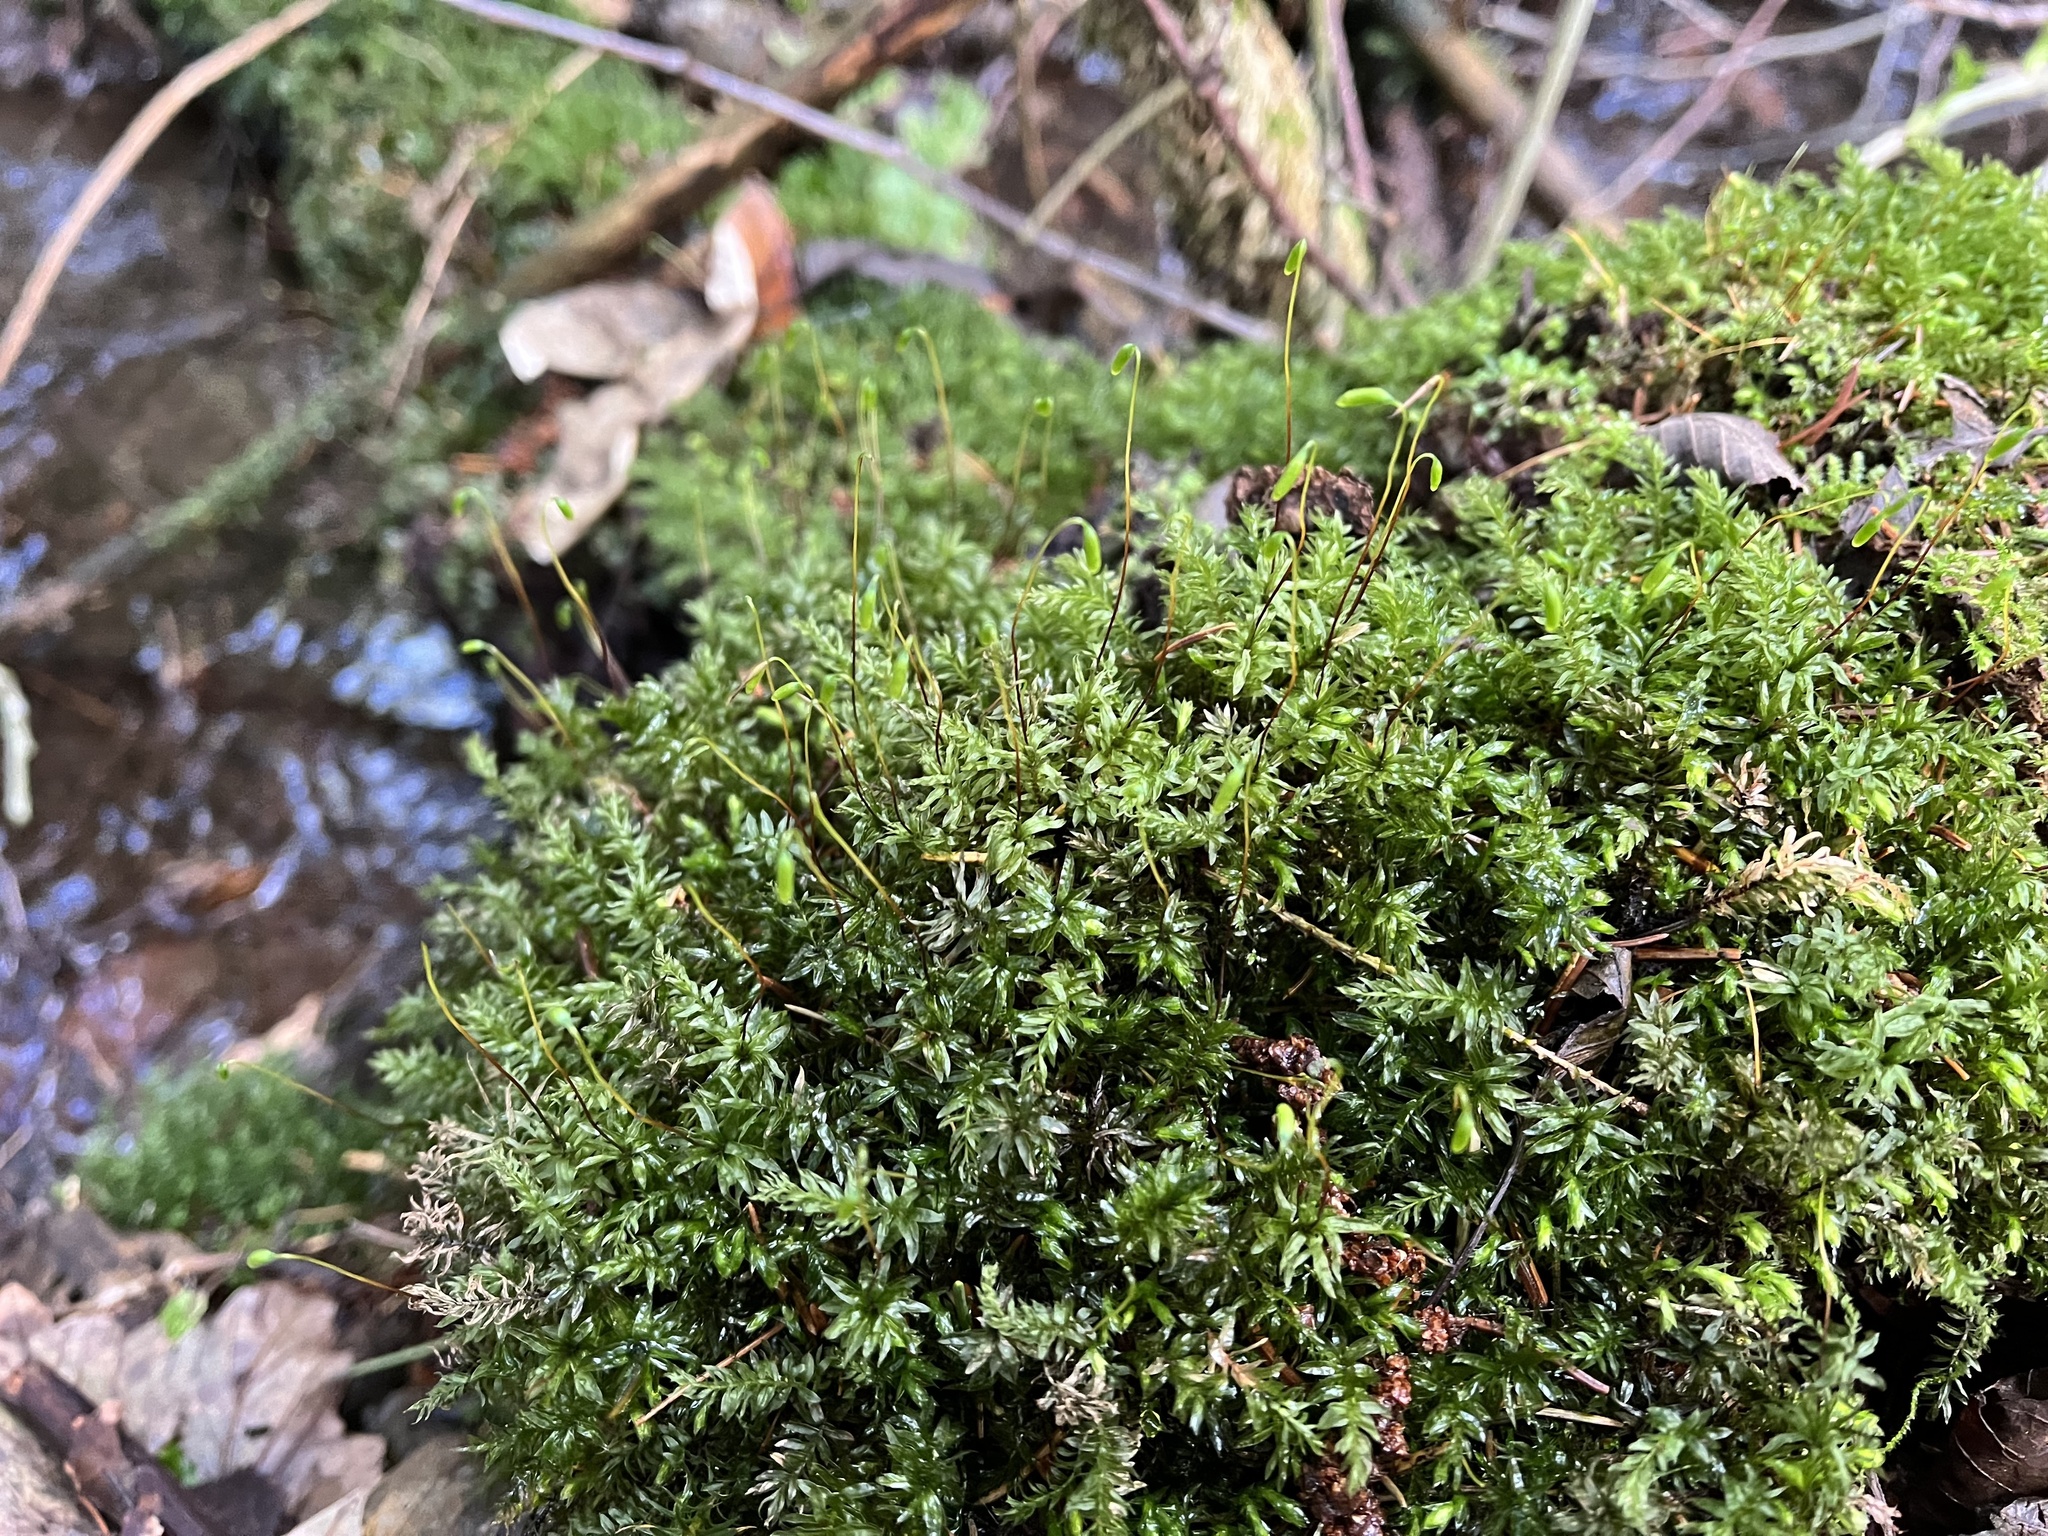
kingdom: Plantae
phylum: Bryophyta
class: Bryopsida
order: Bryales
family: Mniaceae
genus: Mnium
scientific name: Mnium hornum
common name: Swan's-neck leafy moss
